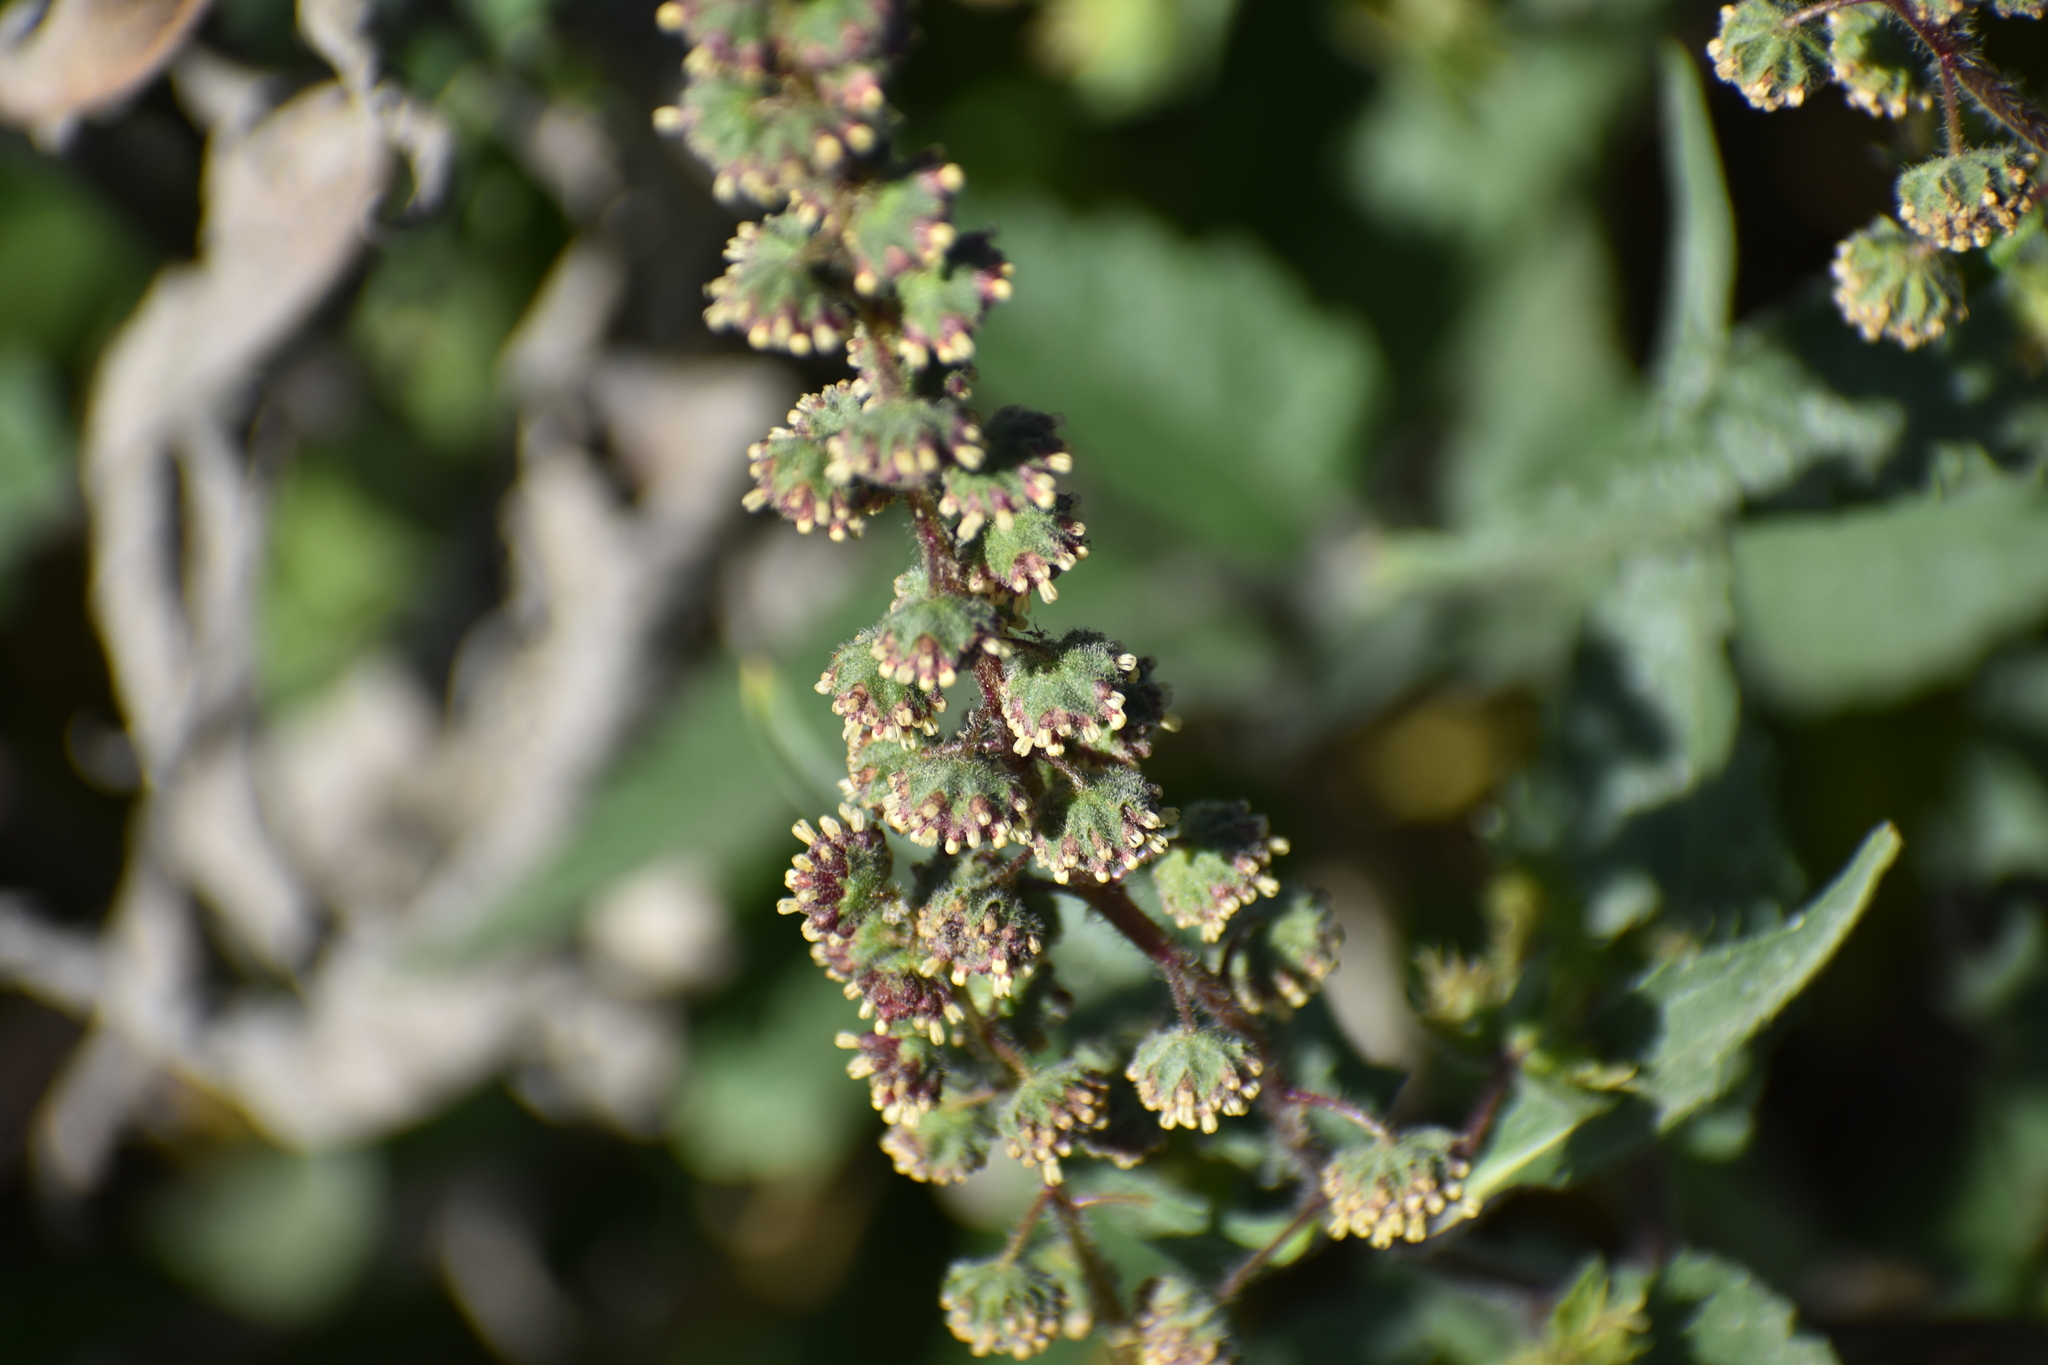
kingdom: Plantae
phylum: Tracheophyta
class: Magnoliopsida
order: Asterales
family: Asteraceae
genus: Ambrosia
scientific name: Ambrosia ambrosioides
